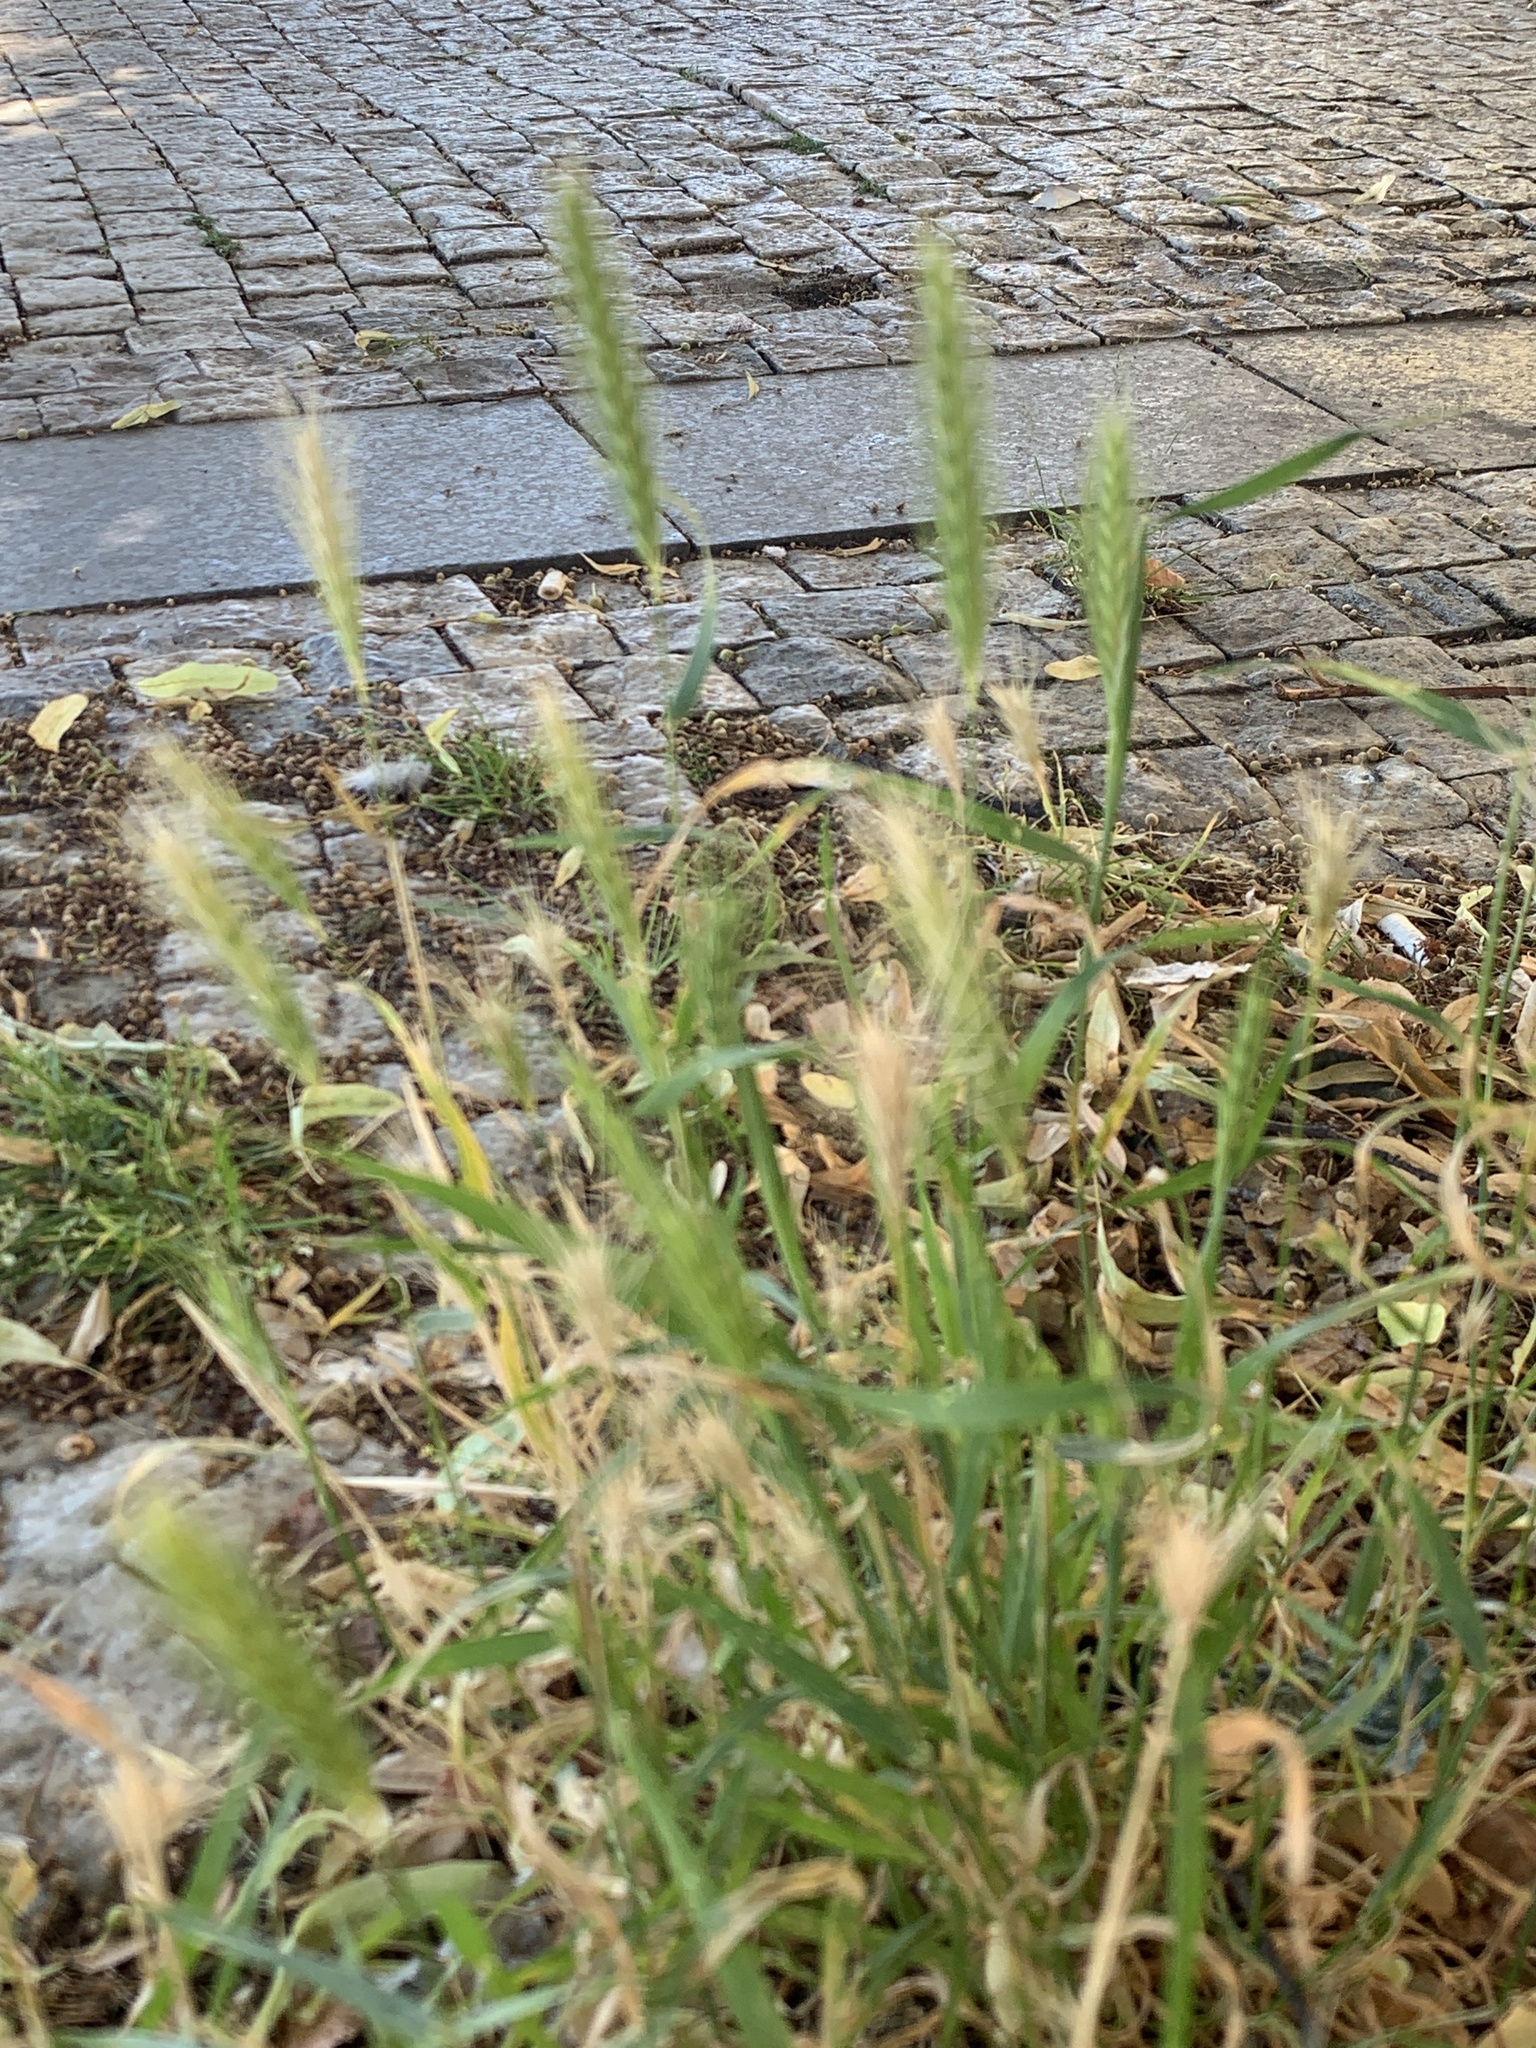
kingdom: Plantae
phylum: Tracheophyta
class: Liliopsida
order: Poales
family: Poaceae
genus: Hordeum
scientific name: Hordeum murinum
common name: Wall barley
